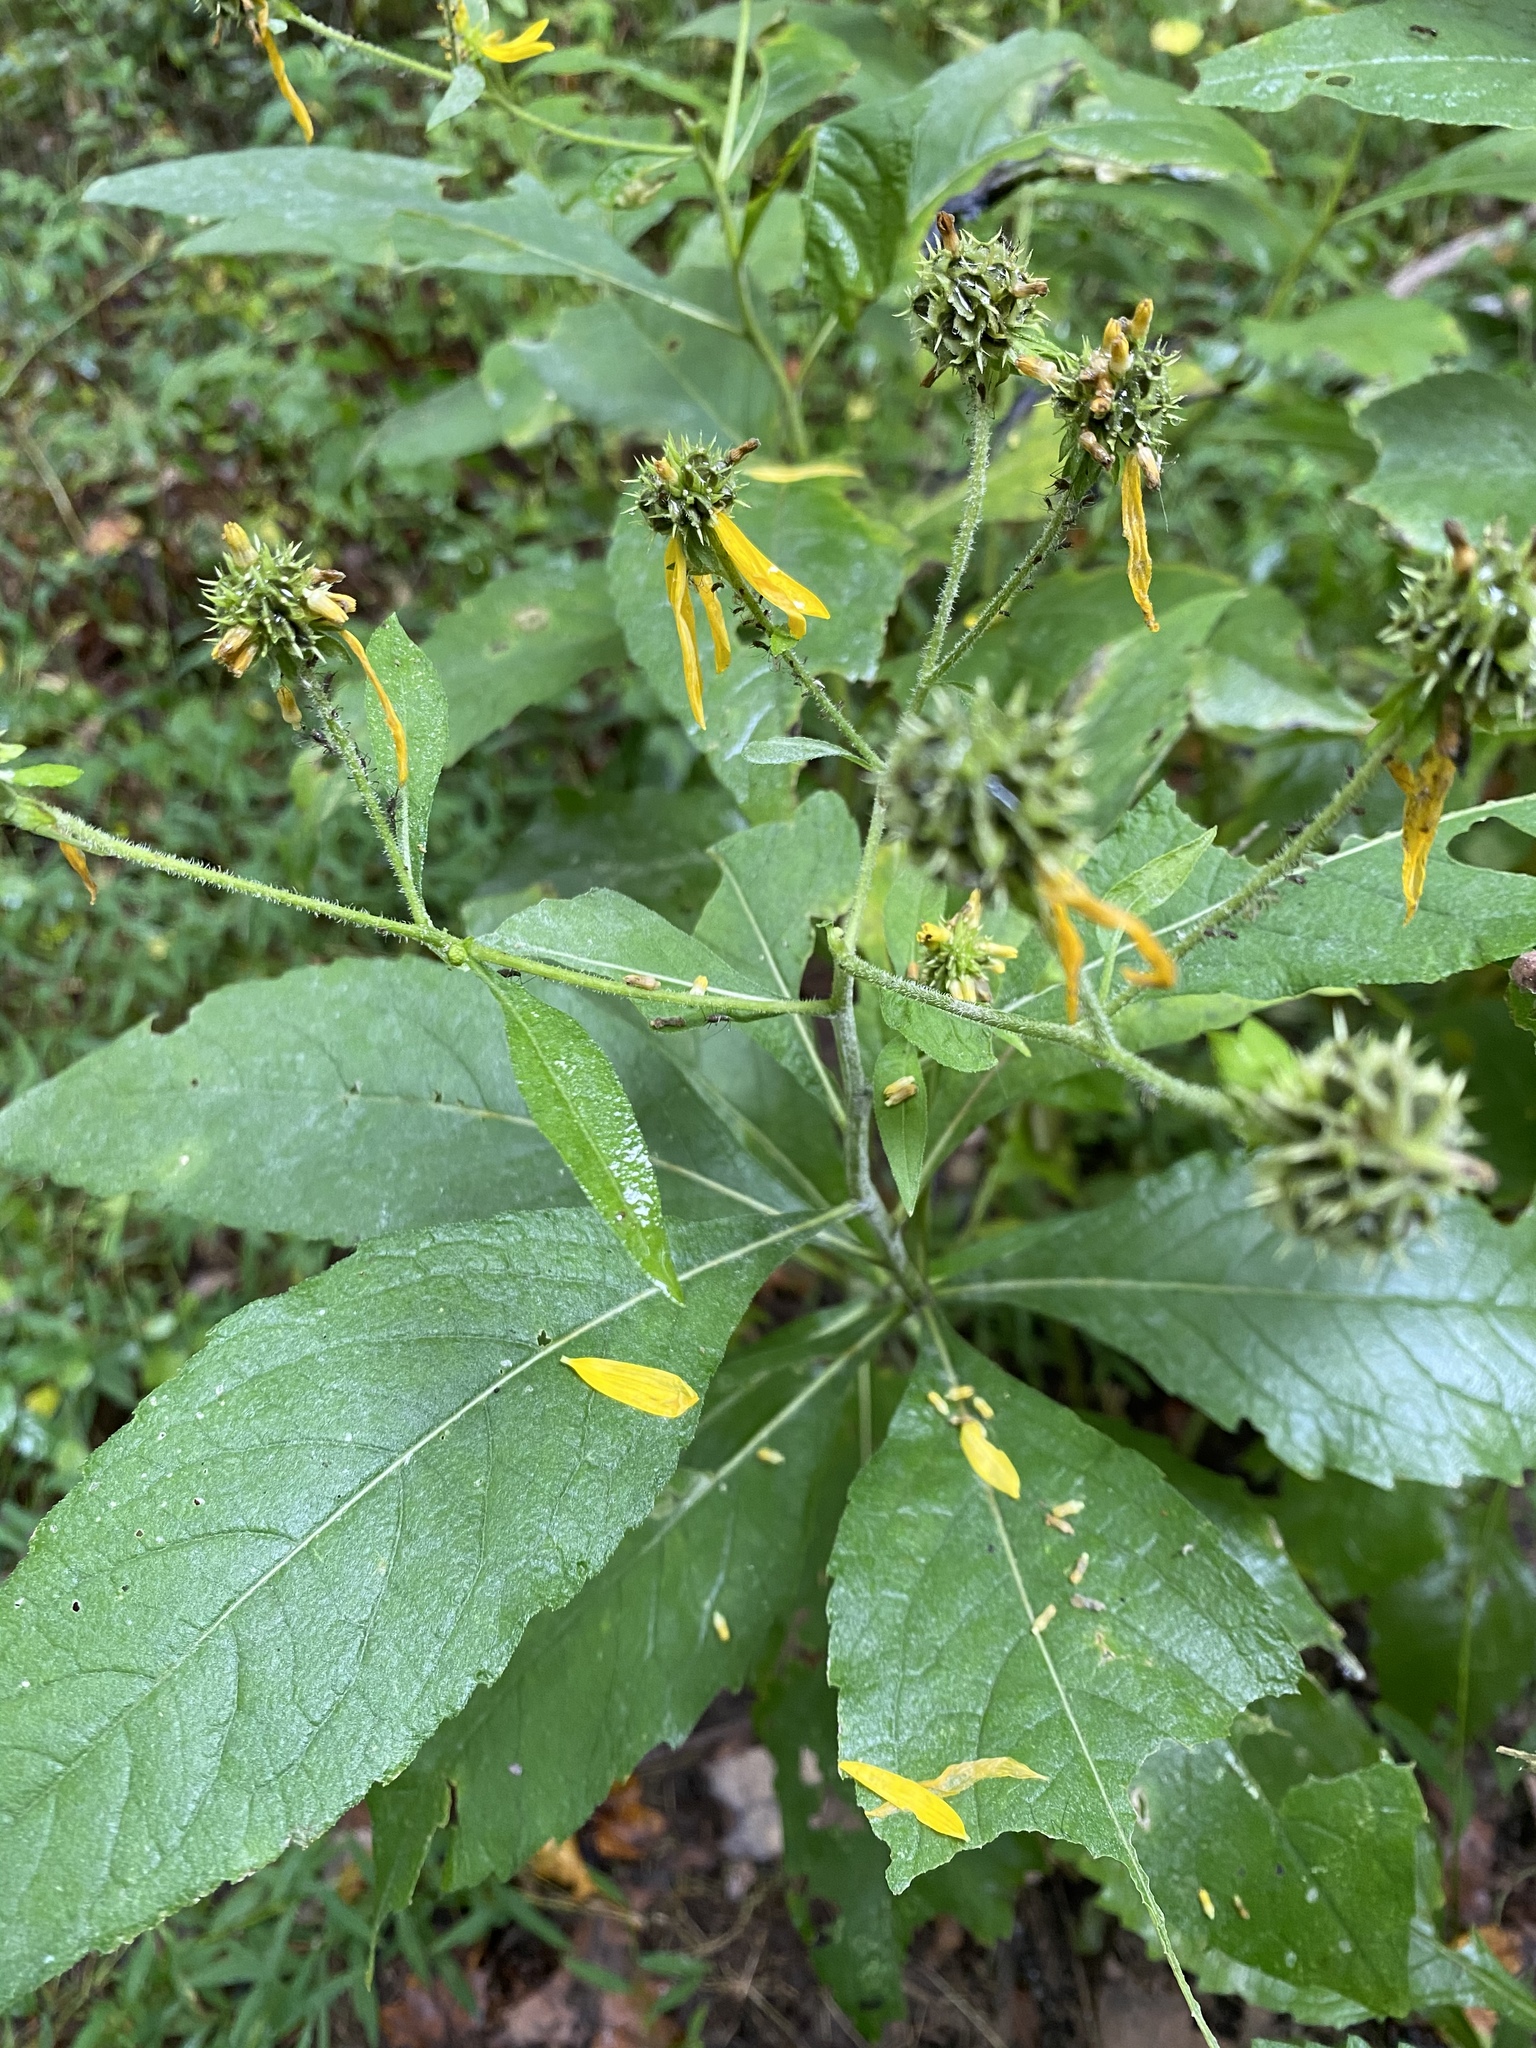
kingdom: Plantae
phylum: Tracheophyta
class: Magnoliopsida
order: Asterales
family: Asteraceae
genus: Verbesina
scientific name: Verbesina alternifolia
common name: Wingstem
